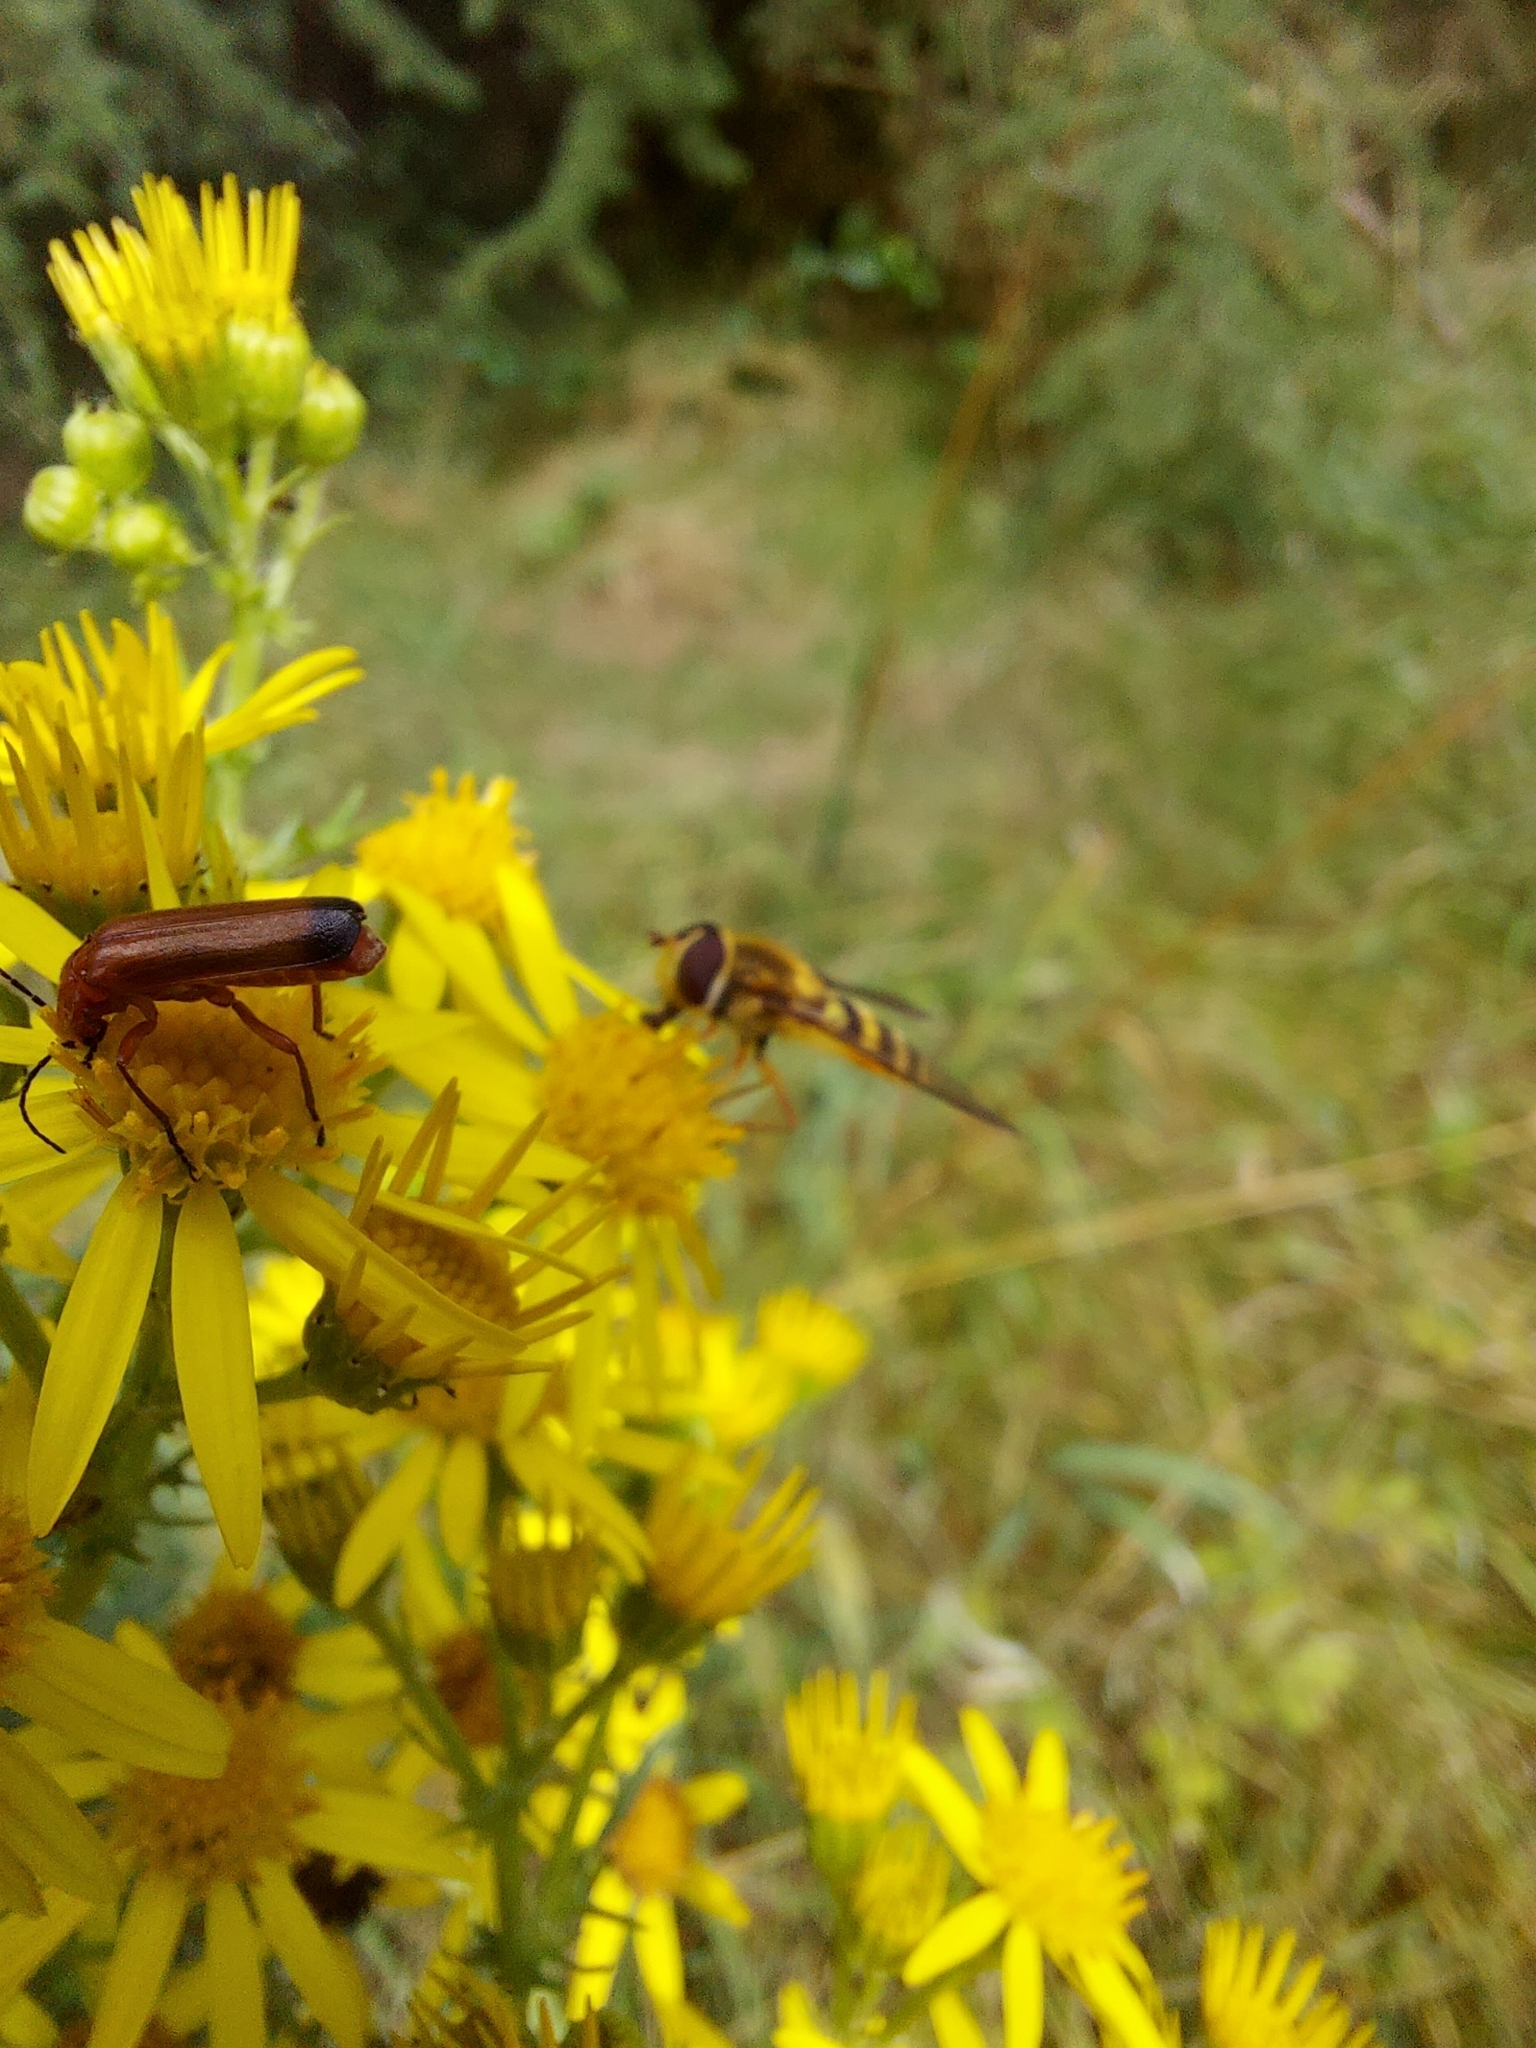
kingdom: Animalia
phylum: Arthropoda
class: Insecta
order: Diptera
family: Syrphidae
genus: Syrphus
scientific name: Syrphus ribesii
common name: Common flower fly
